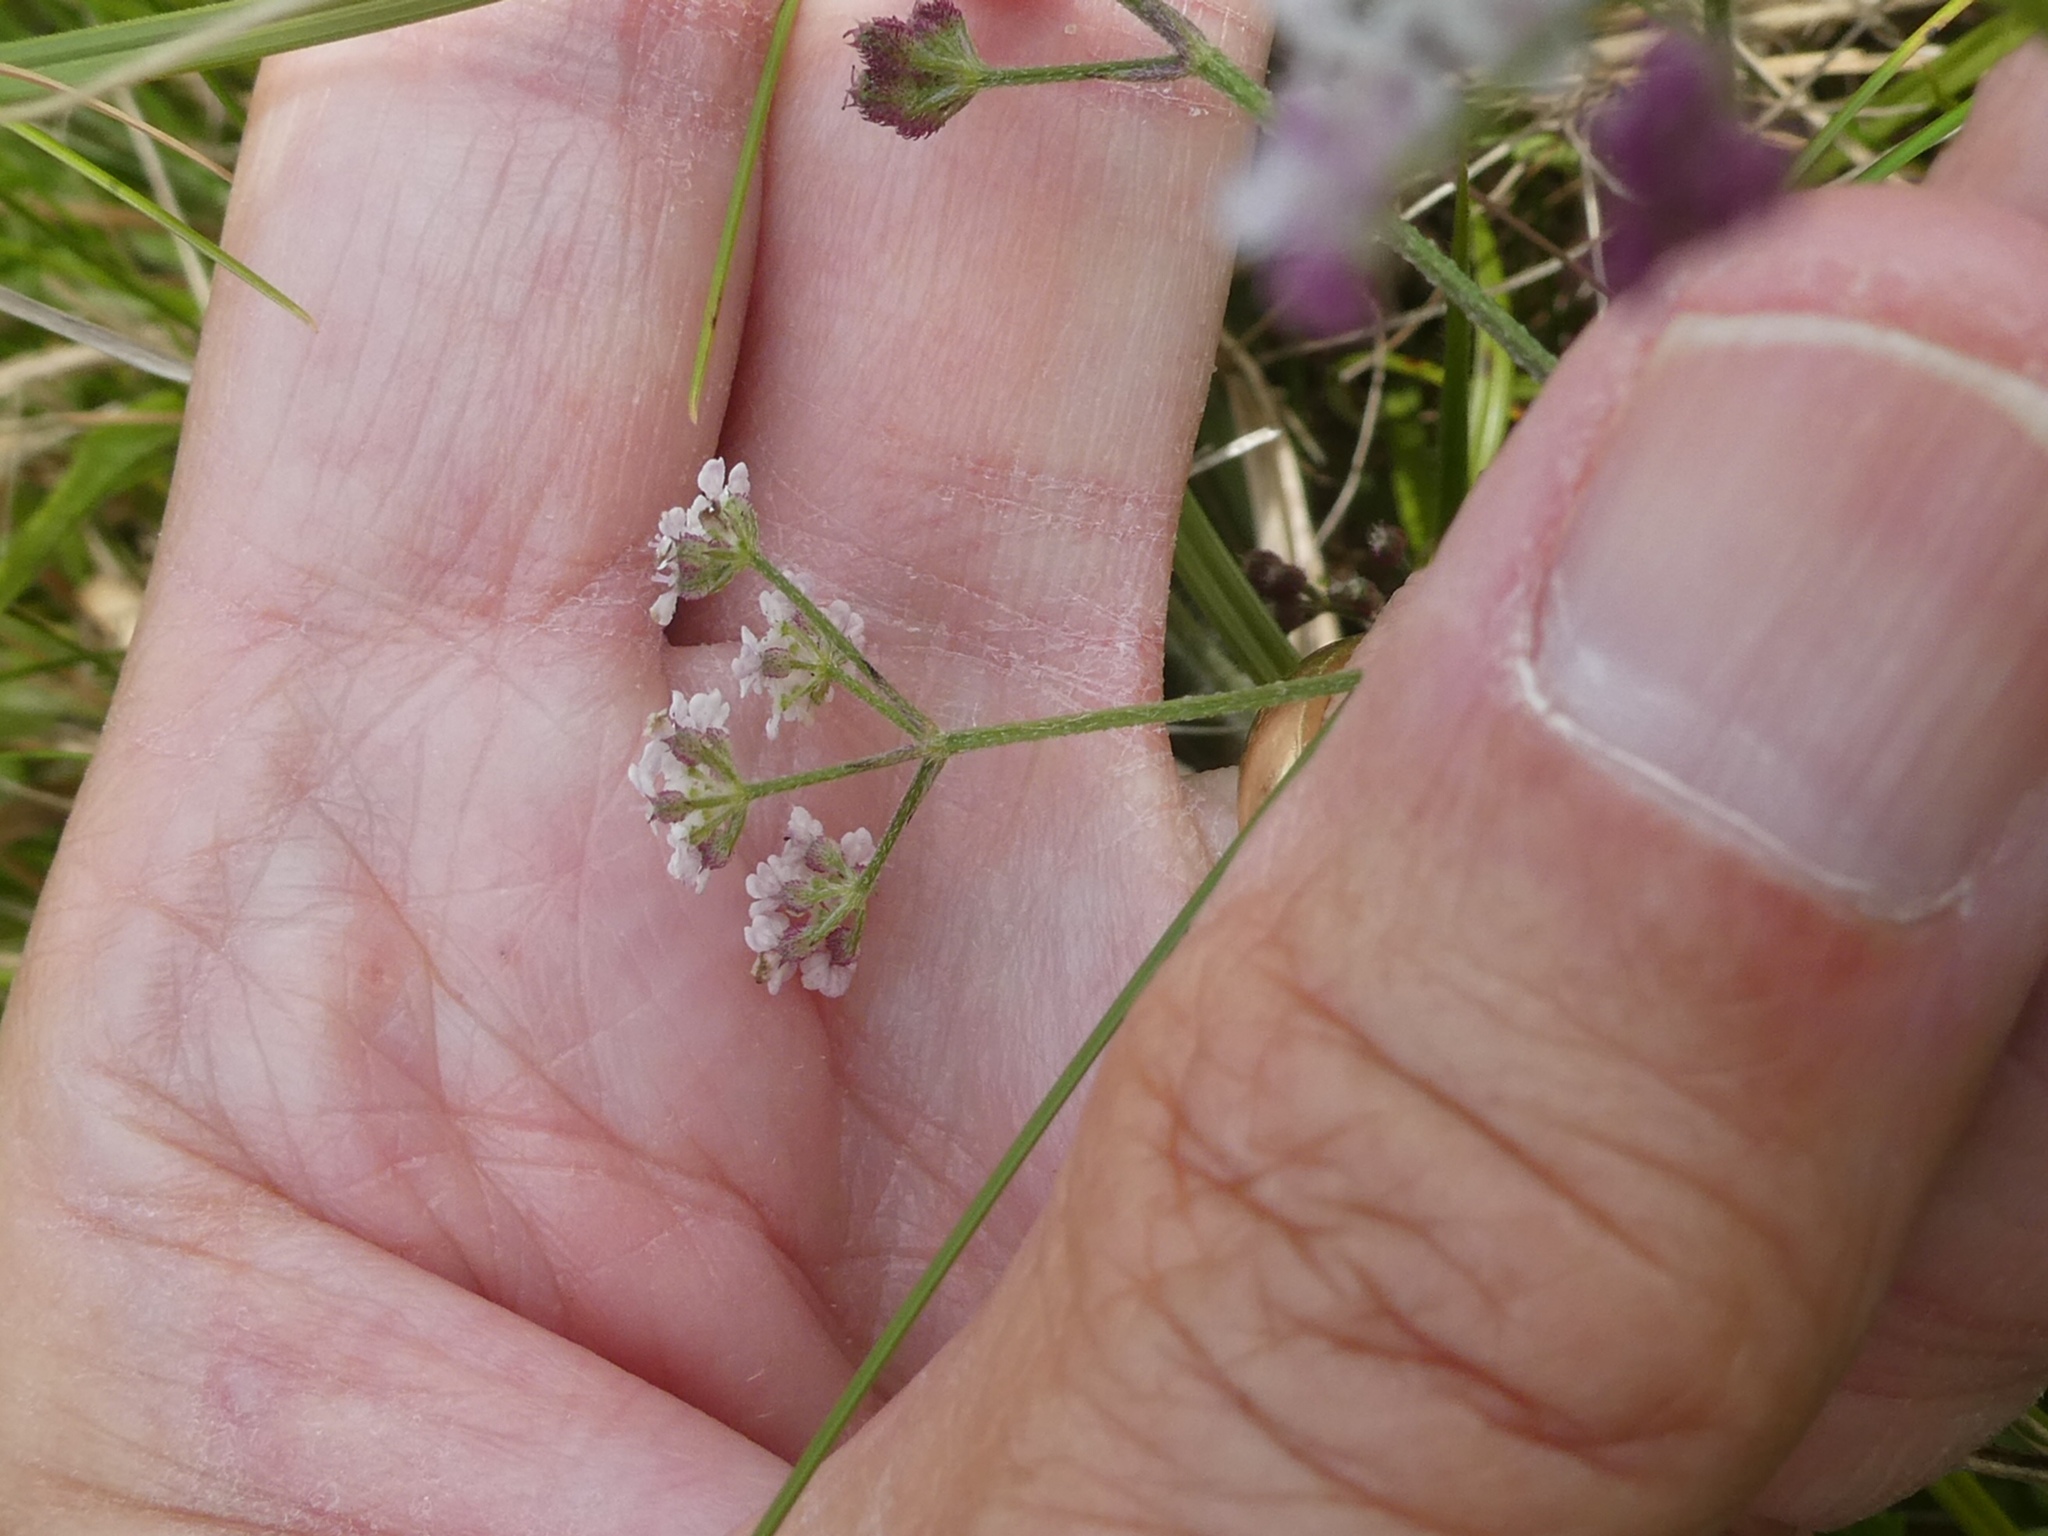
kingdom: Plantae
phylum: Tracheophyta
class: Magnoliopsida
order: Apiales
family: Apiaceae
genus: Torilis
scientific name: Torilis japonica
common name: Upright hedge-parsley
